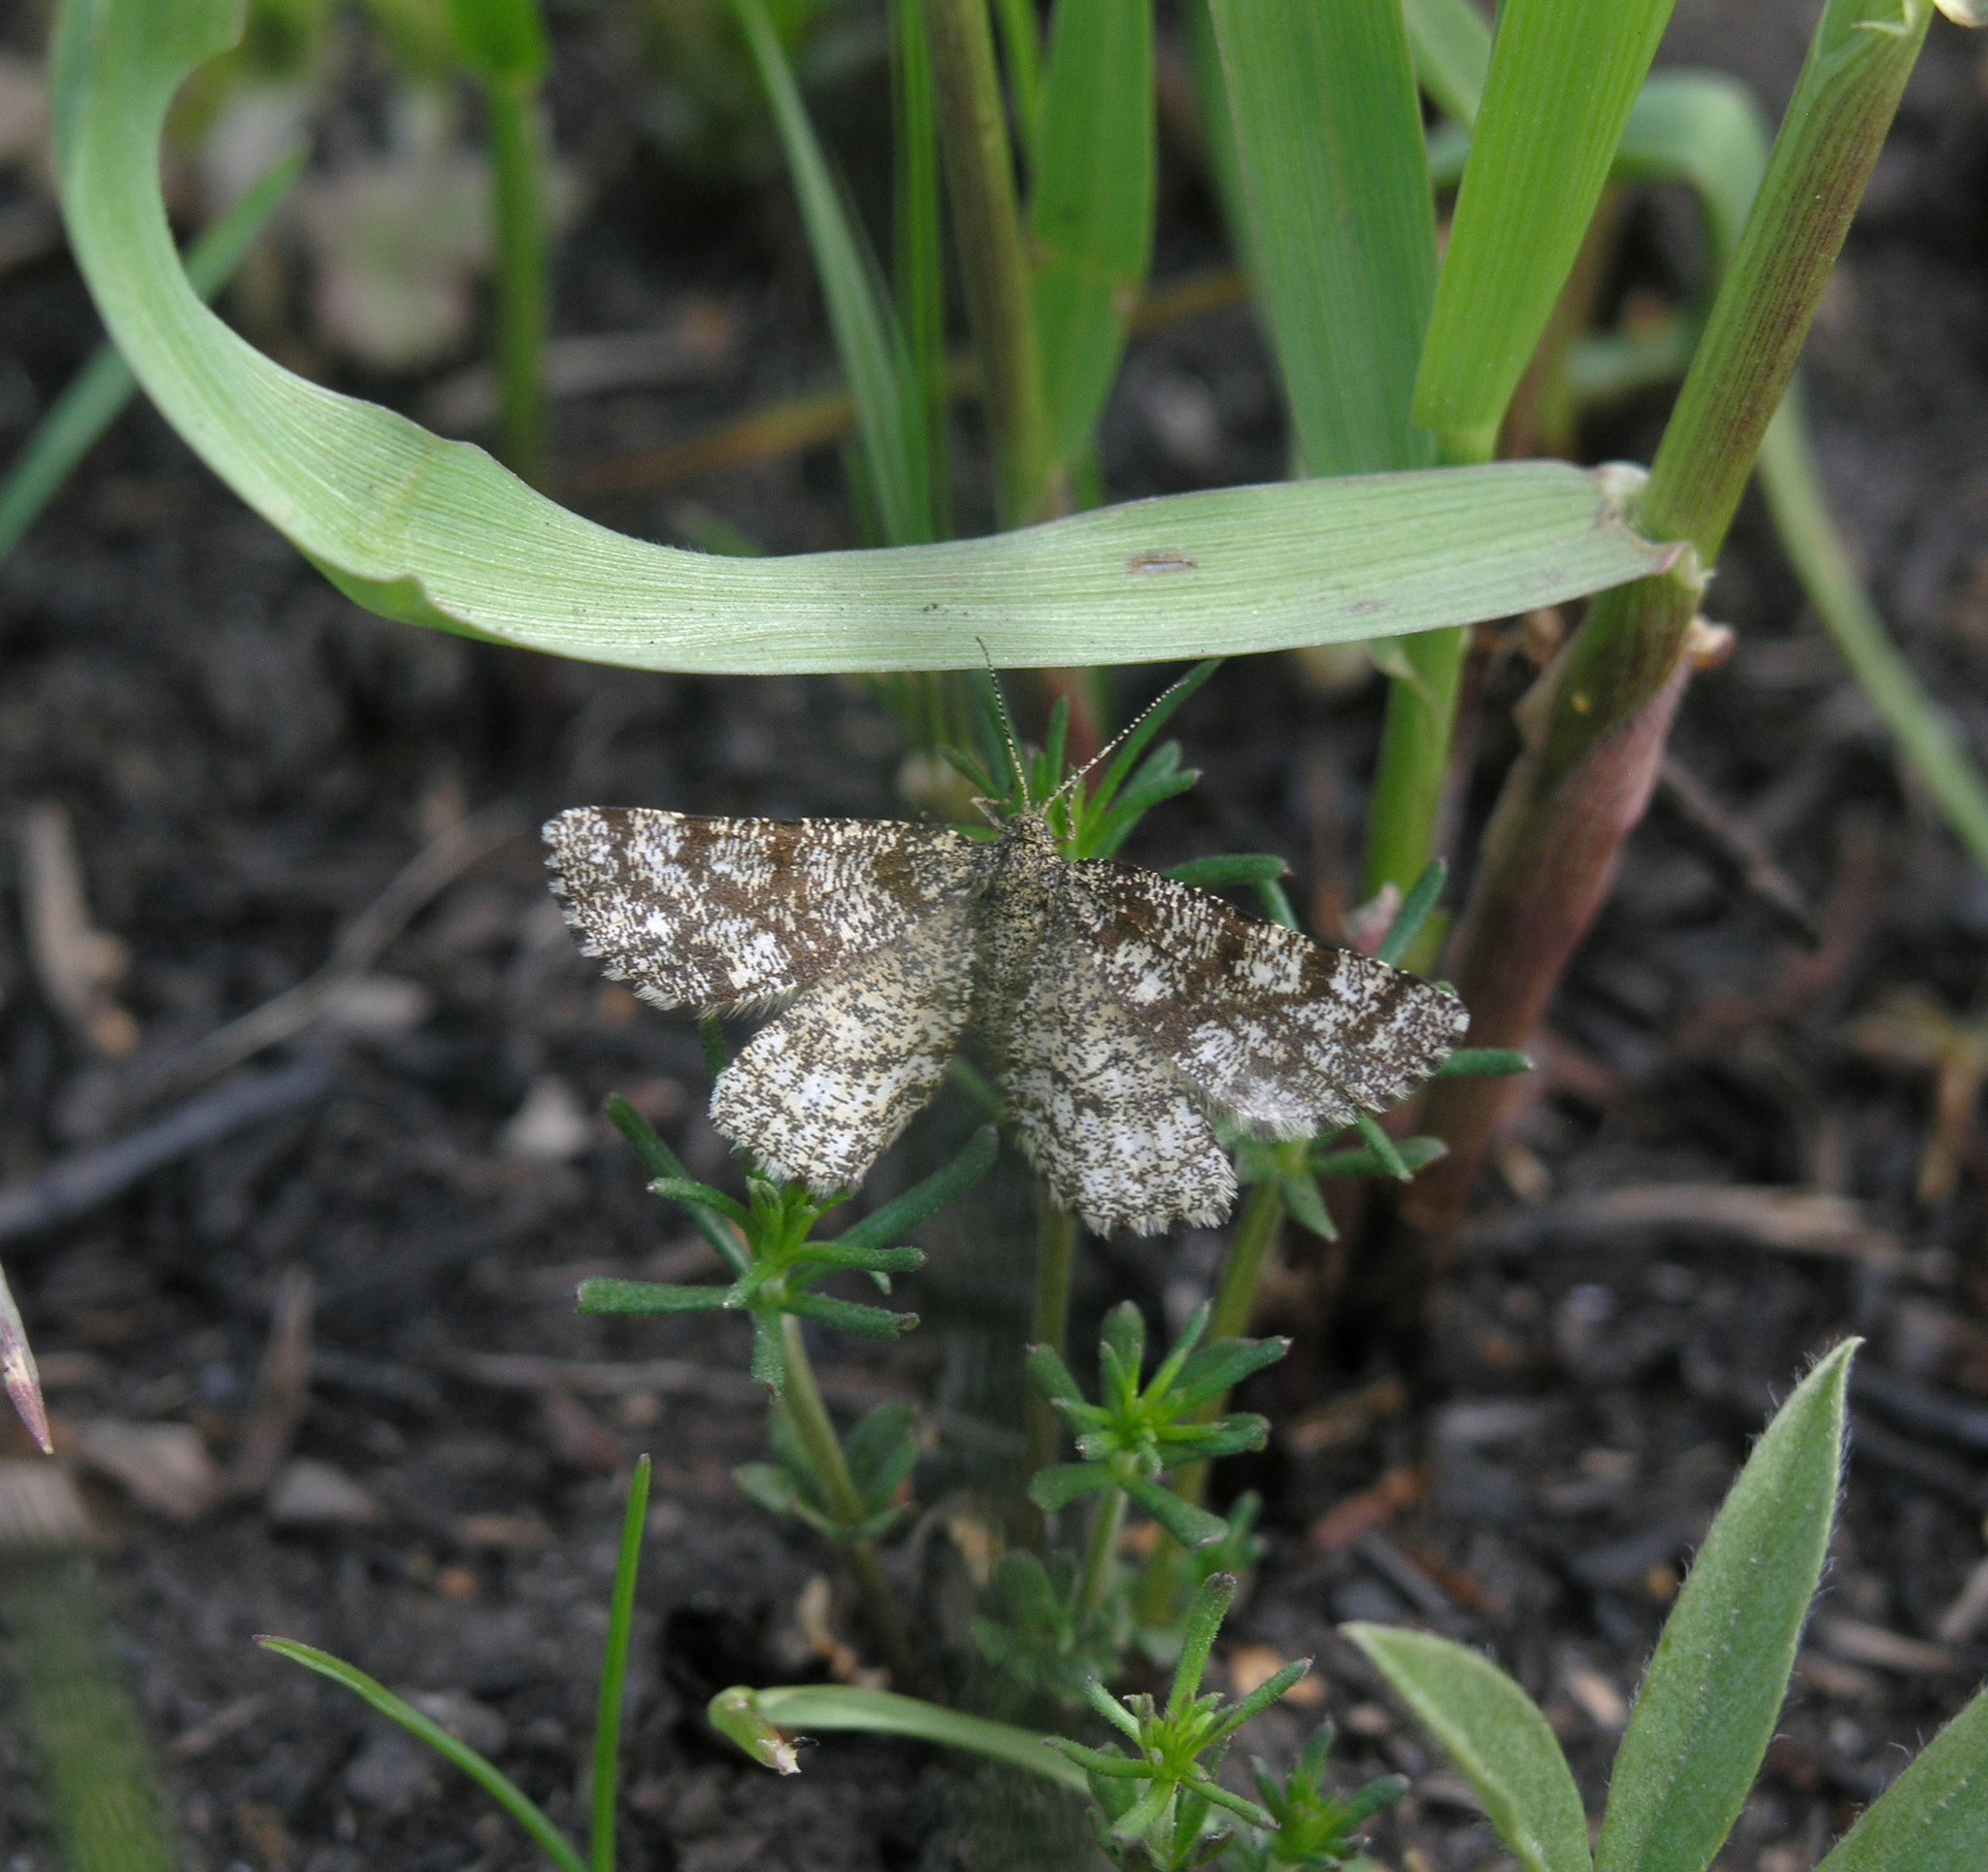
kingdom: Animalia
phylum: Arthropoda
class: Insecta
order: Lepidoptera
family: Geometridae
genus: Ematurga
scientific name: Ematurga atomaria
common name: Common heath
